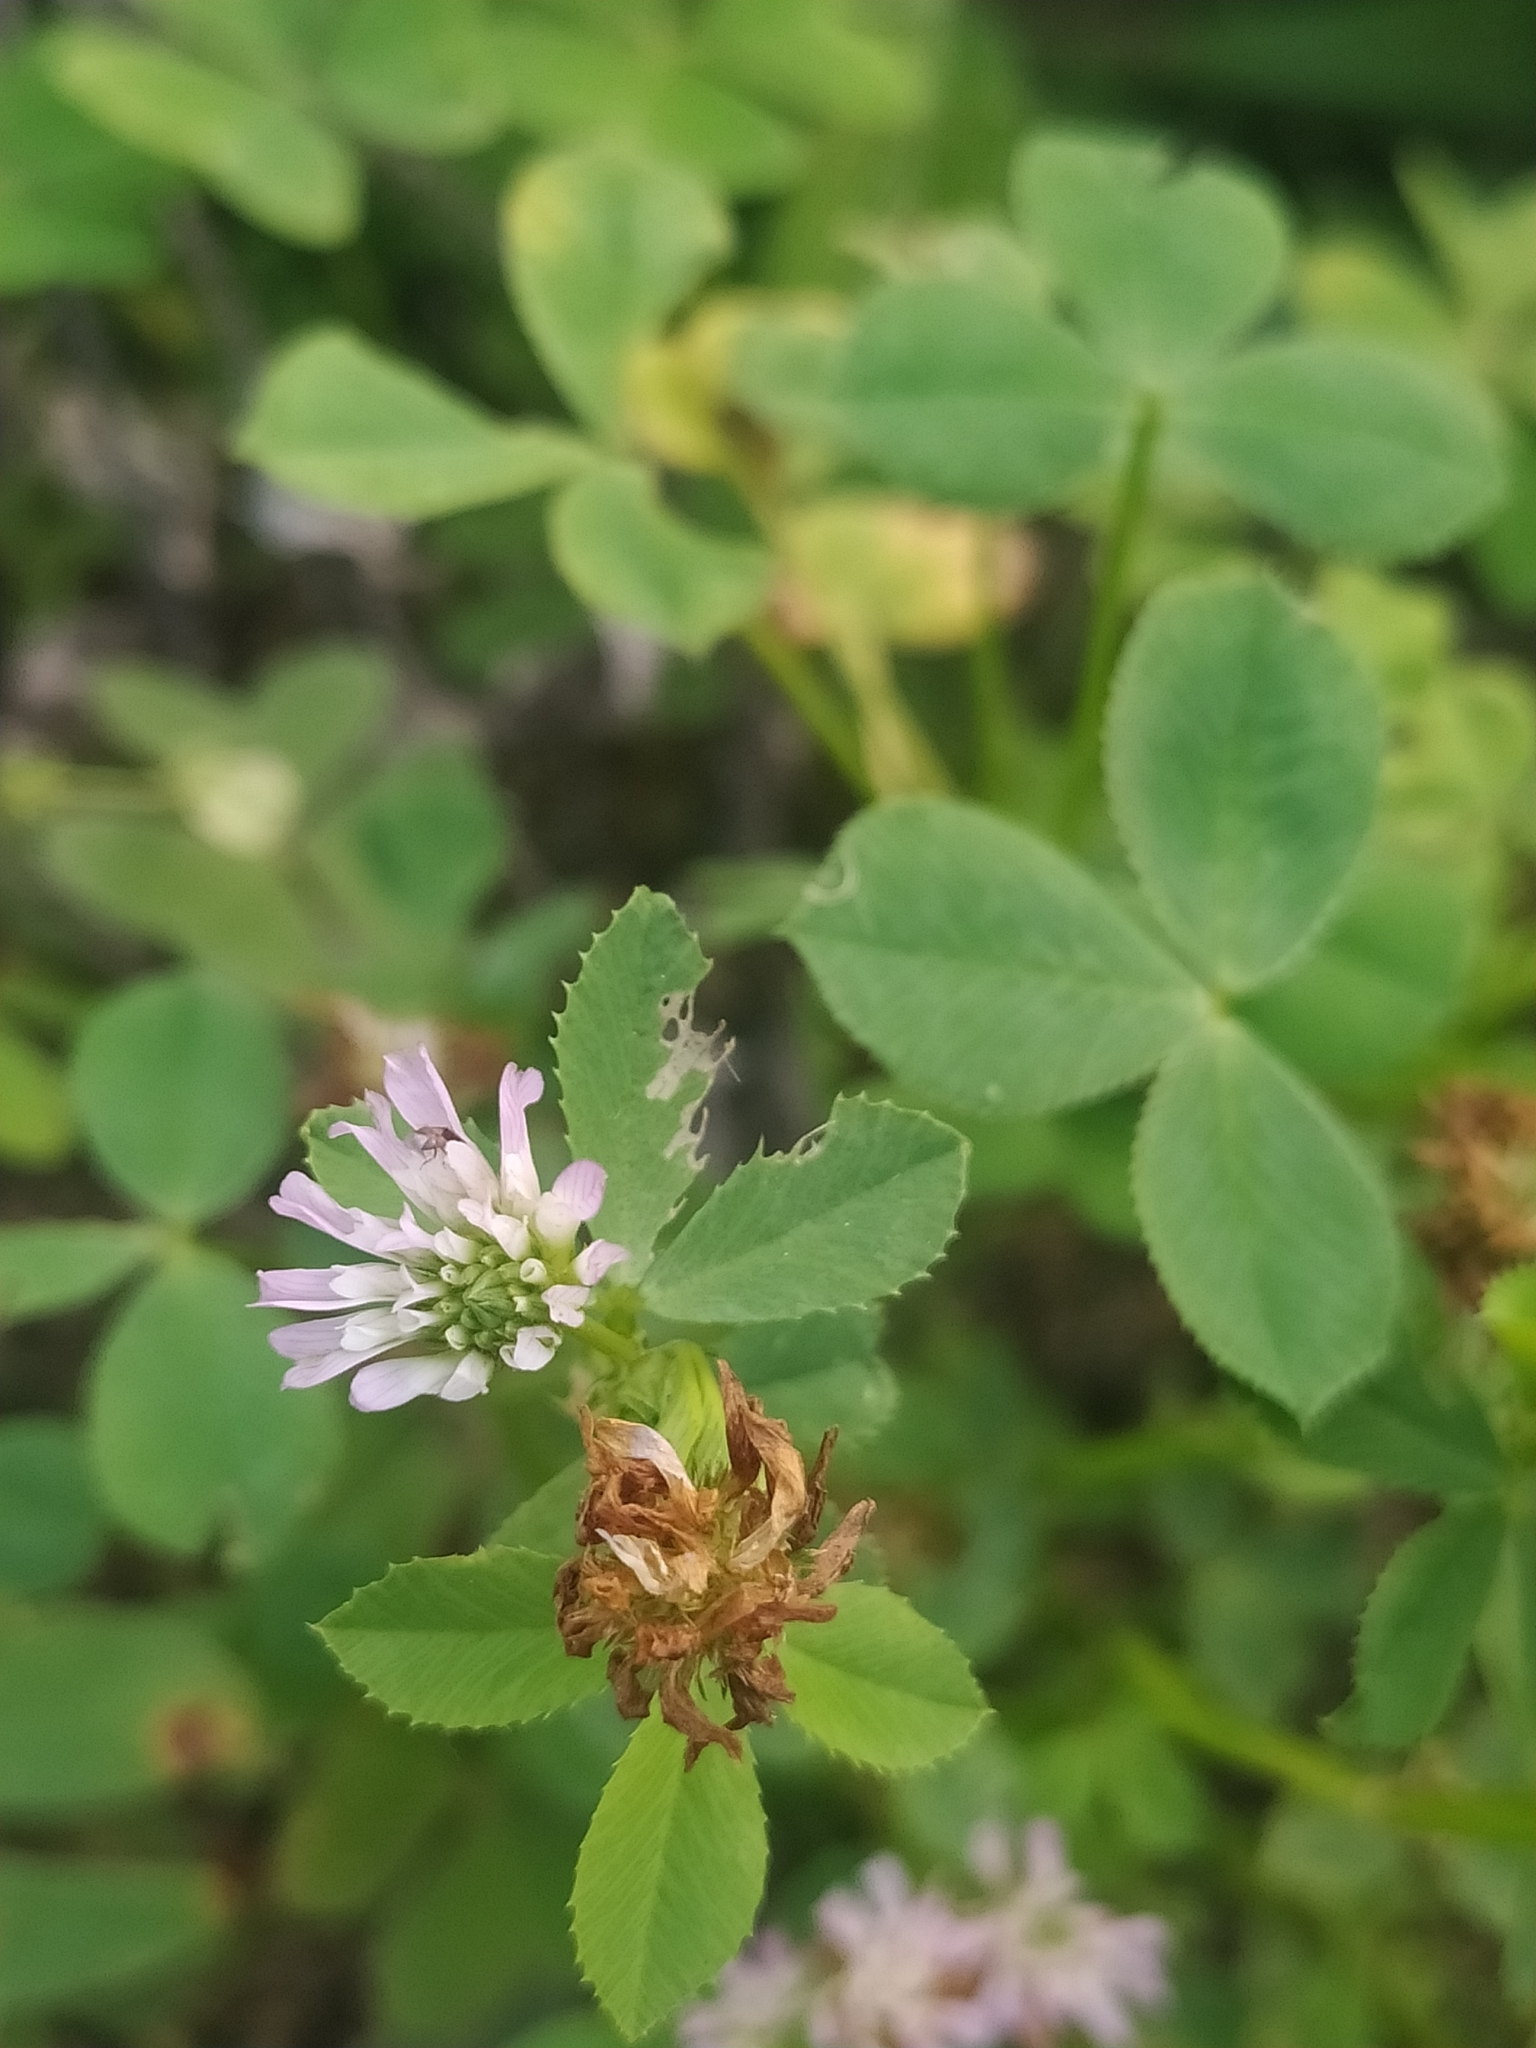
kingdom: Plantae
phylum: Tracheophyta
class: Magnoliopsida
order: Fabales
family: Fabaceae
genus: Trifolium
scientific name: Trifolium resupinatum
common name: Reversed clover
